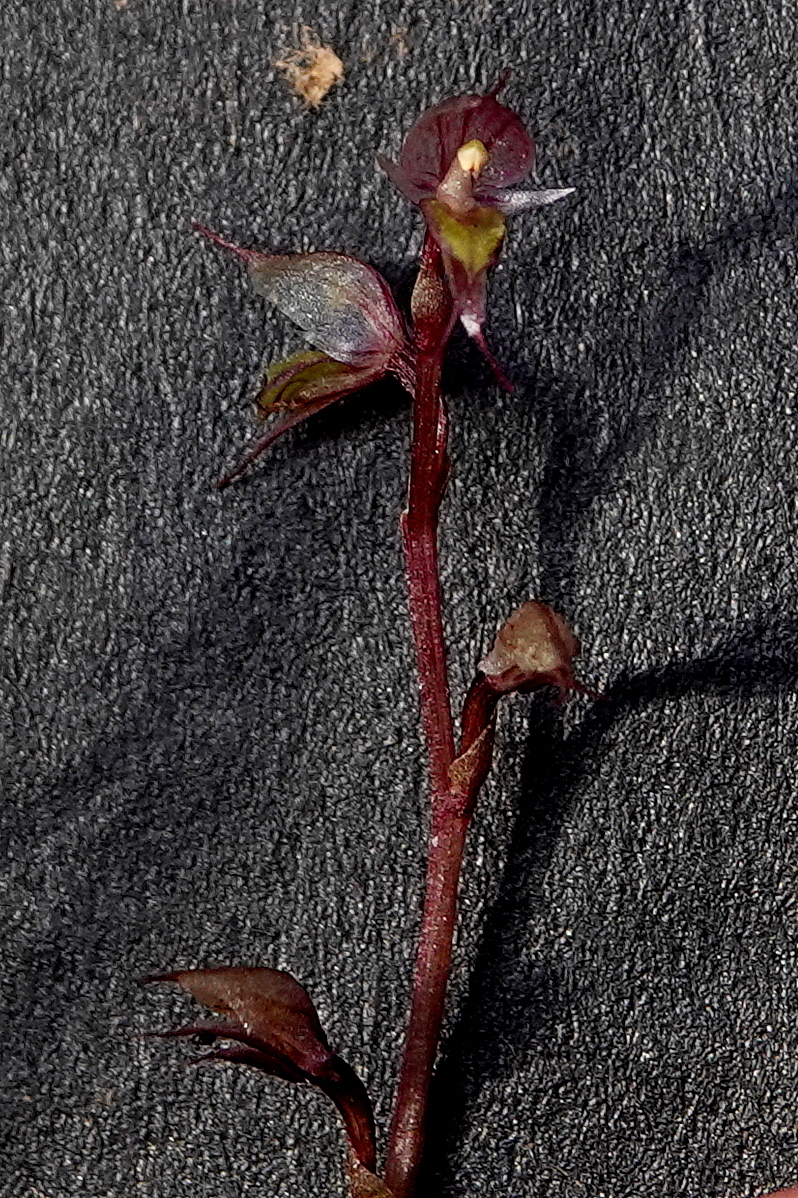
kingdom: Plantae
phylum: Tracheophyta
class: Liliopsida
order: Asparagales
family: Orchidaceae
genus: Acianthus
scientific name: Acianthus fornicatus
